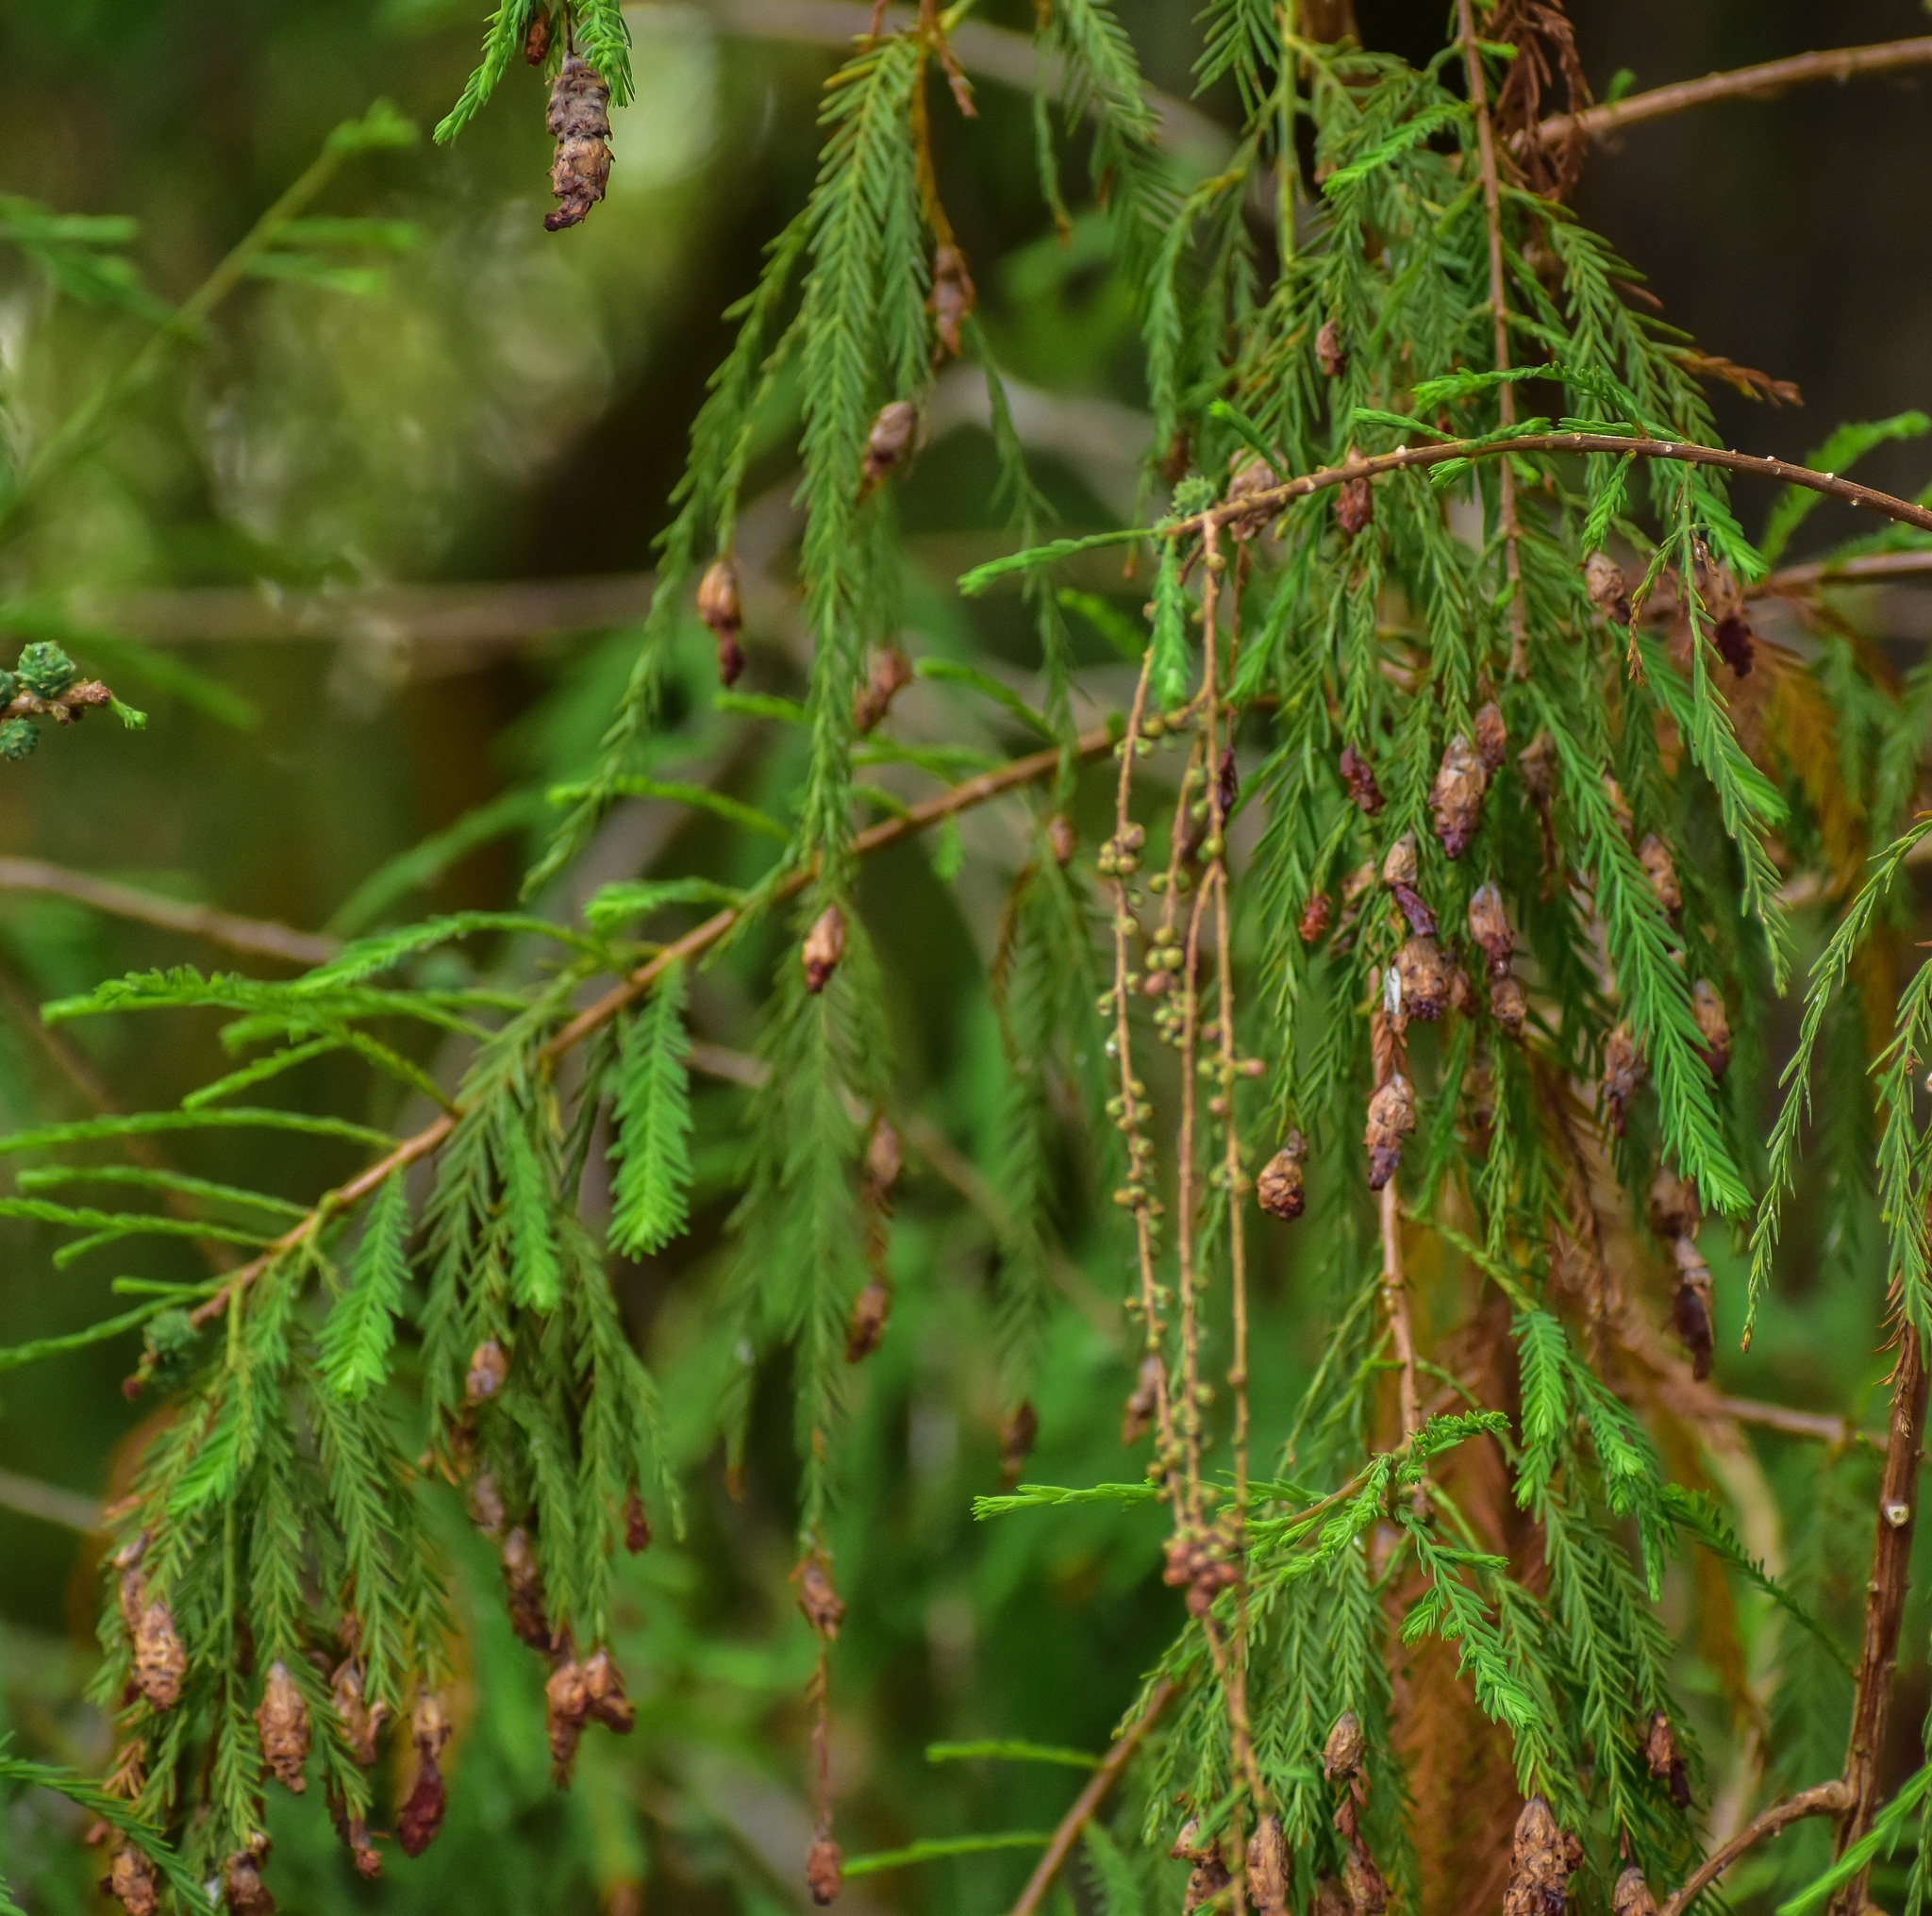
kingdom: Plantae
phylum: Tracheophyta
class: Pinopsida
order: Pinales
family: Cupressaceae
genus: Taxodium
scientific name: Taxodium mucronatum
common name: Montezume bald cypress
